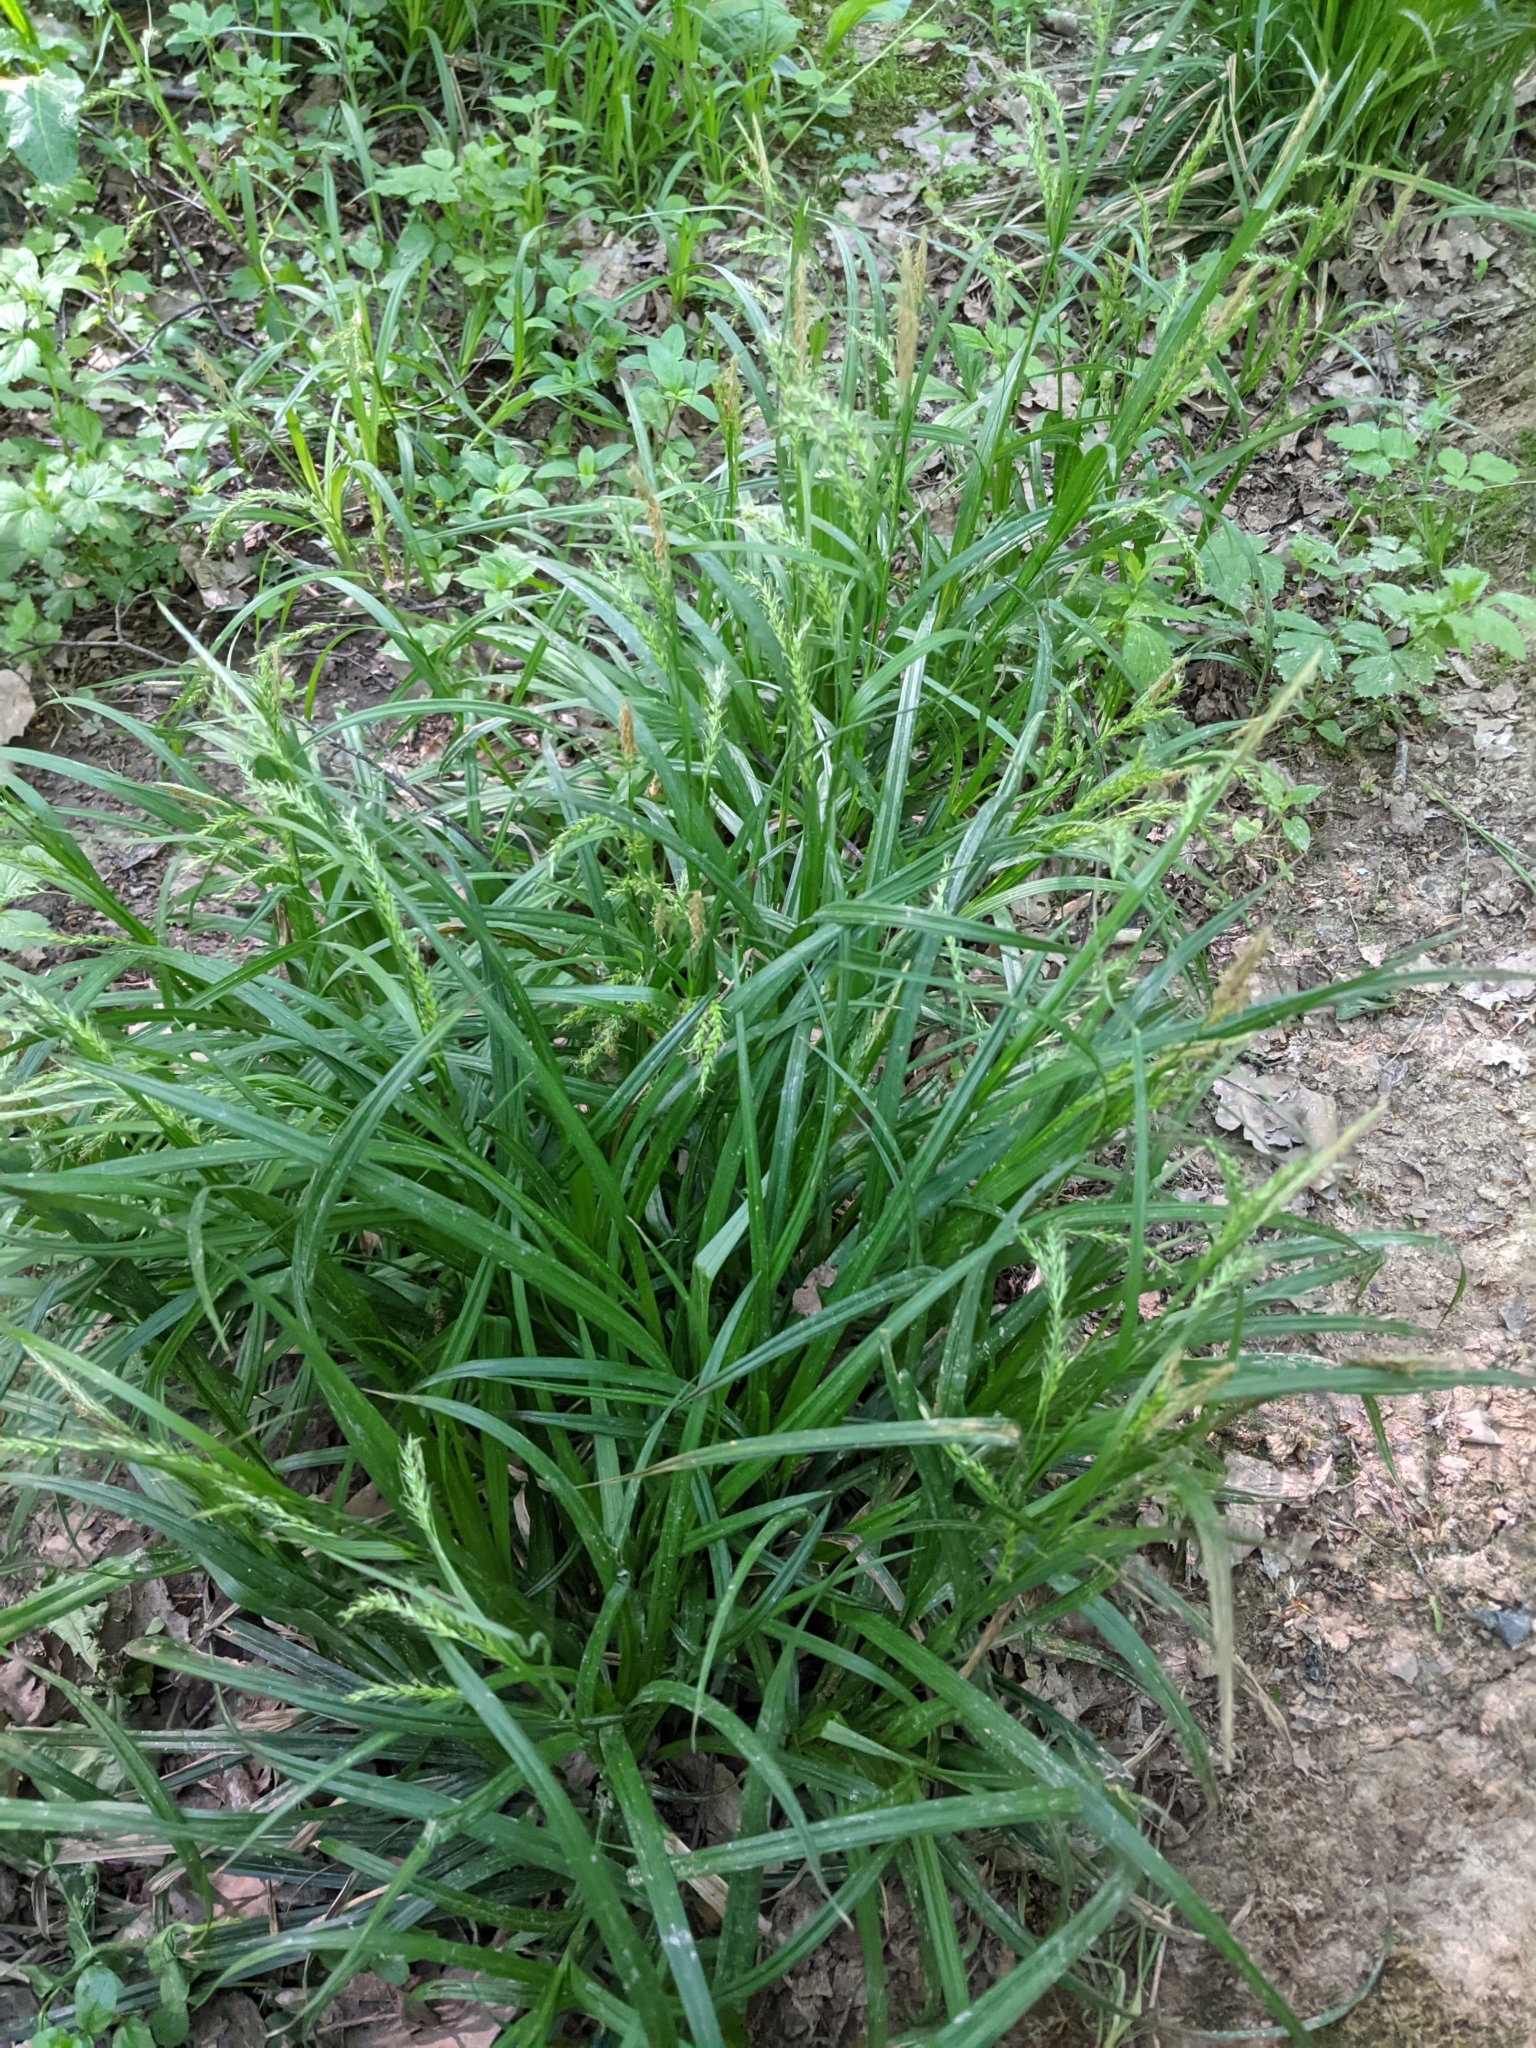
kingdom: Plantae
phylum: Tracheophyta
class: Liliopsida
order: Poales
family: Cyperaceae
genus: Carex
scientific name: Carex sylvatica
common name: Wood-sedge
